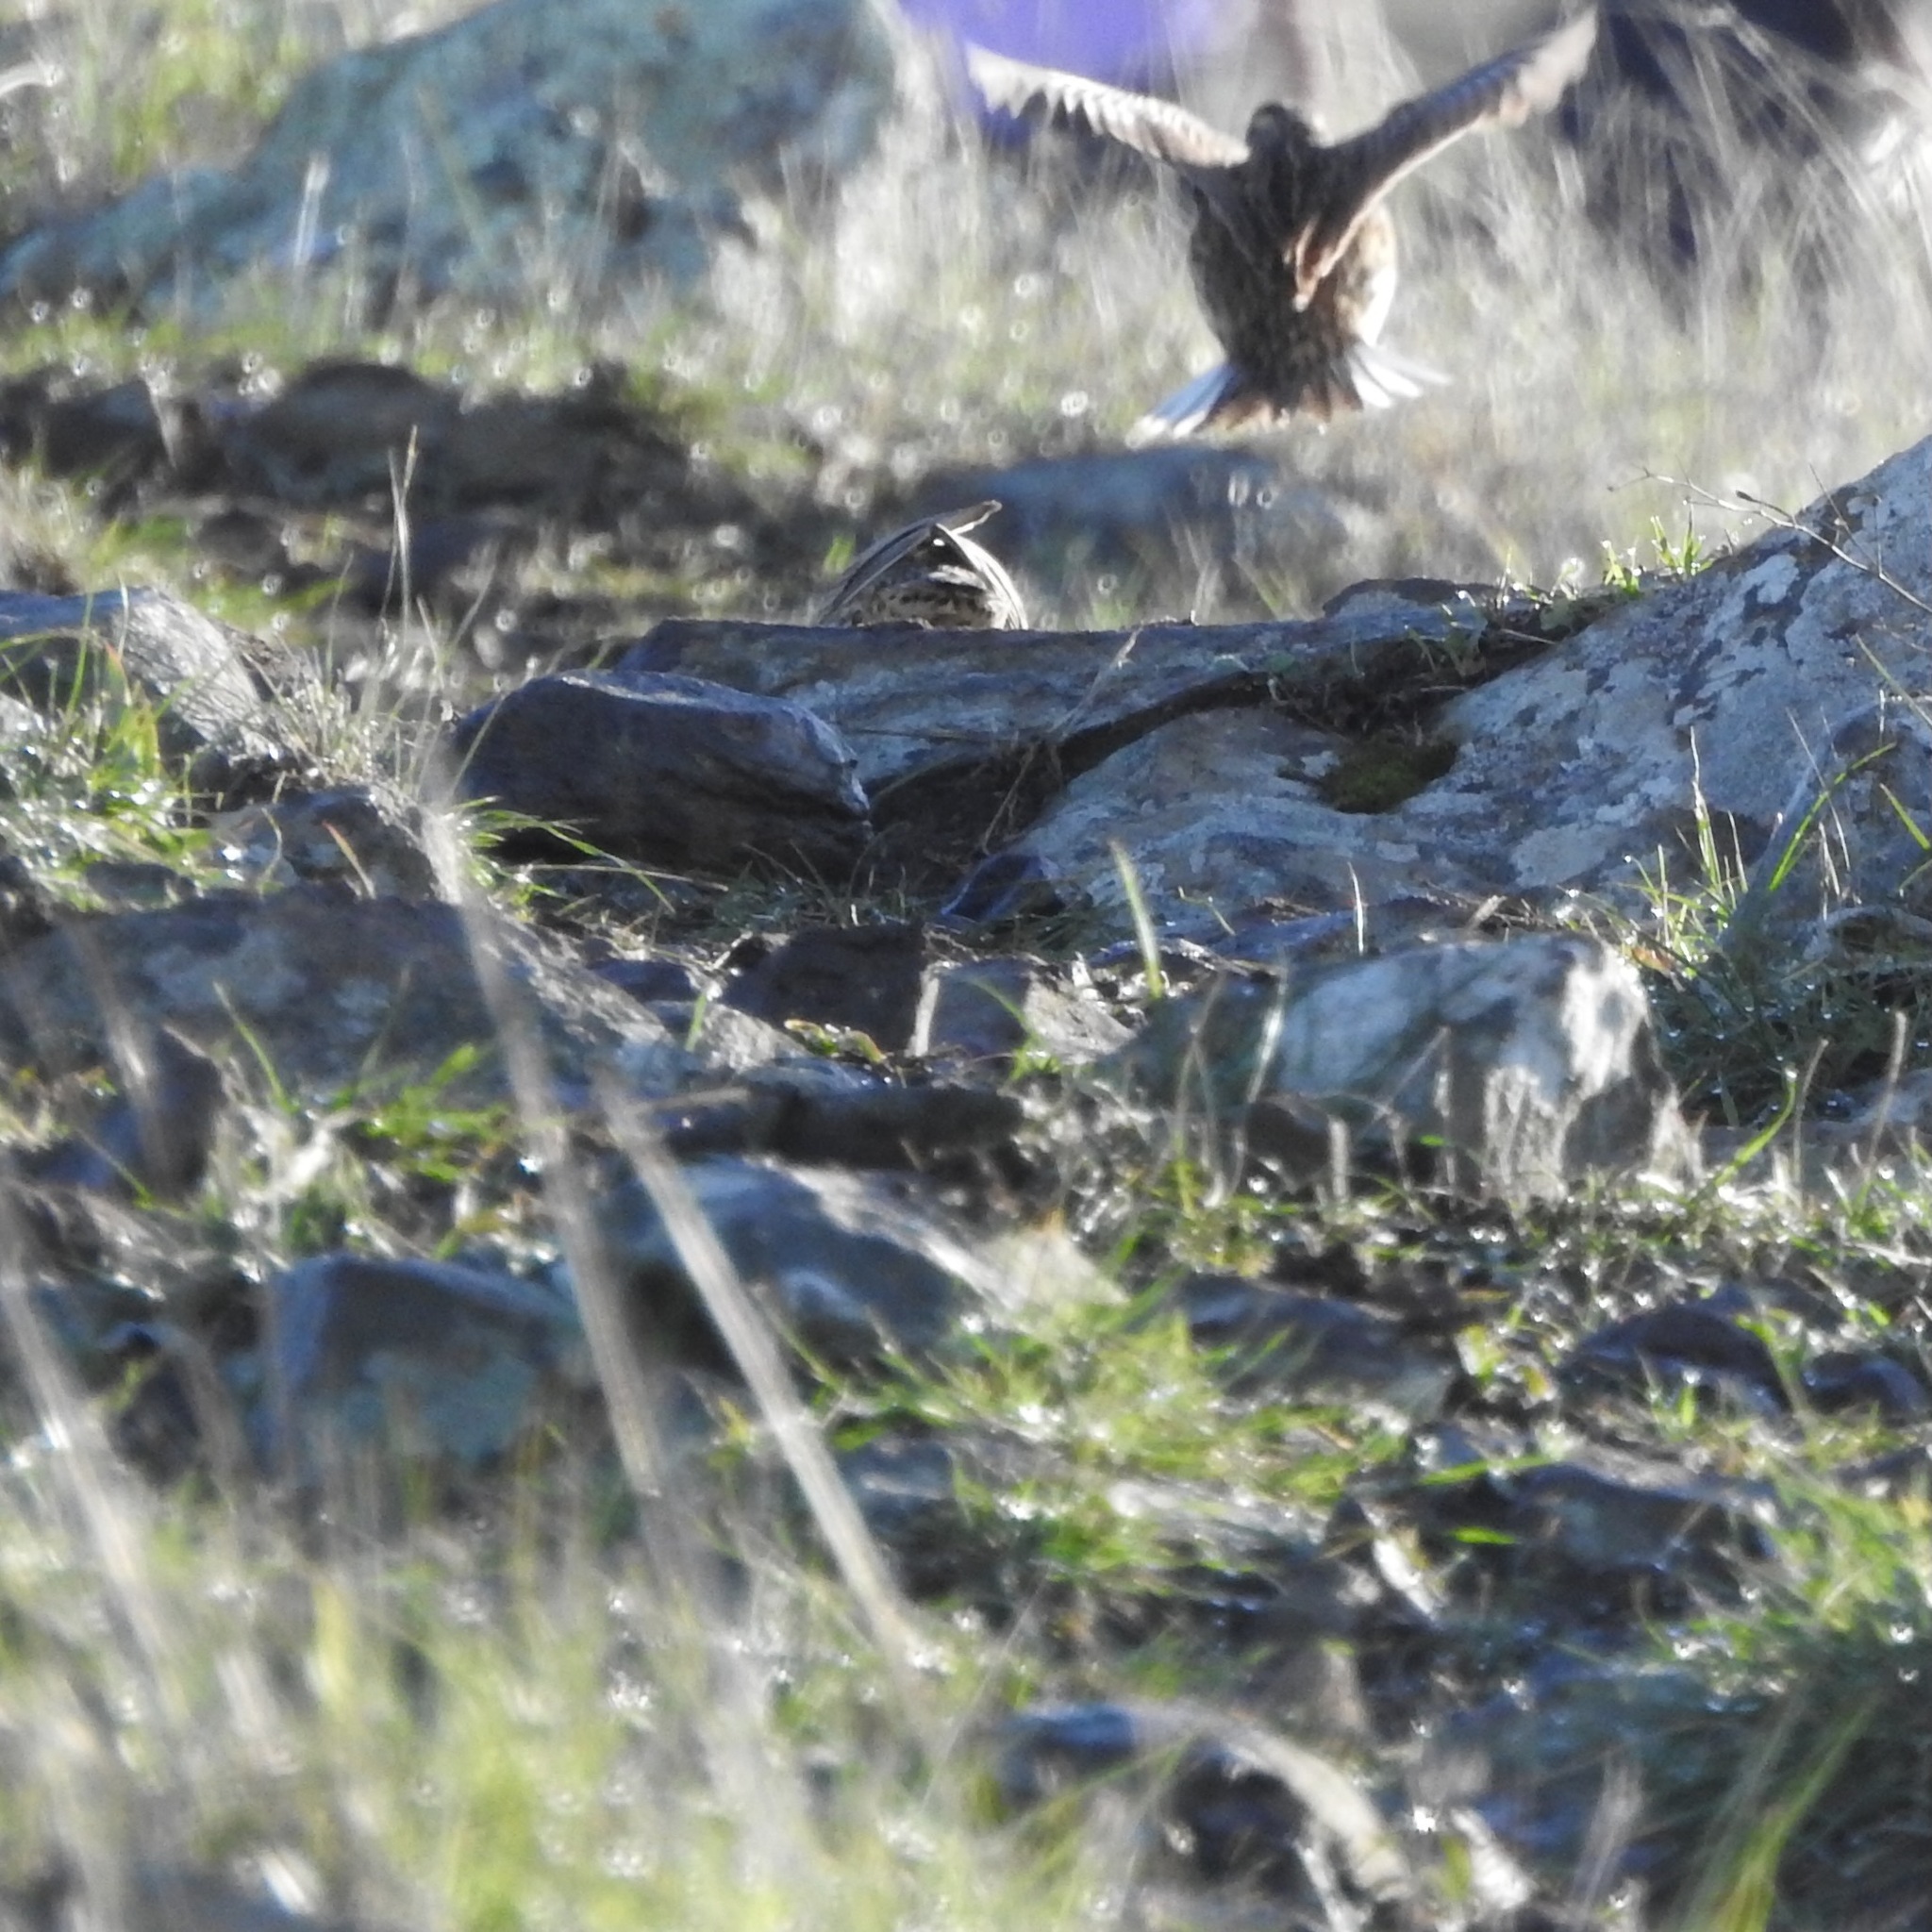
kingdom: Animalia
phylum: Chordata
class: Aves
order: Passeriformes
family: Icteridae
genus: Sturnella
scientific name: Sturnella neglecta
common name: Western meadowlark
